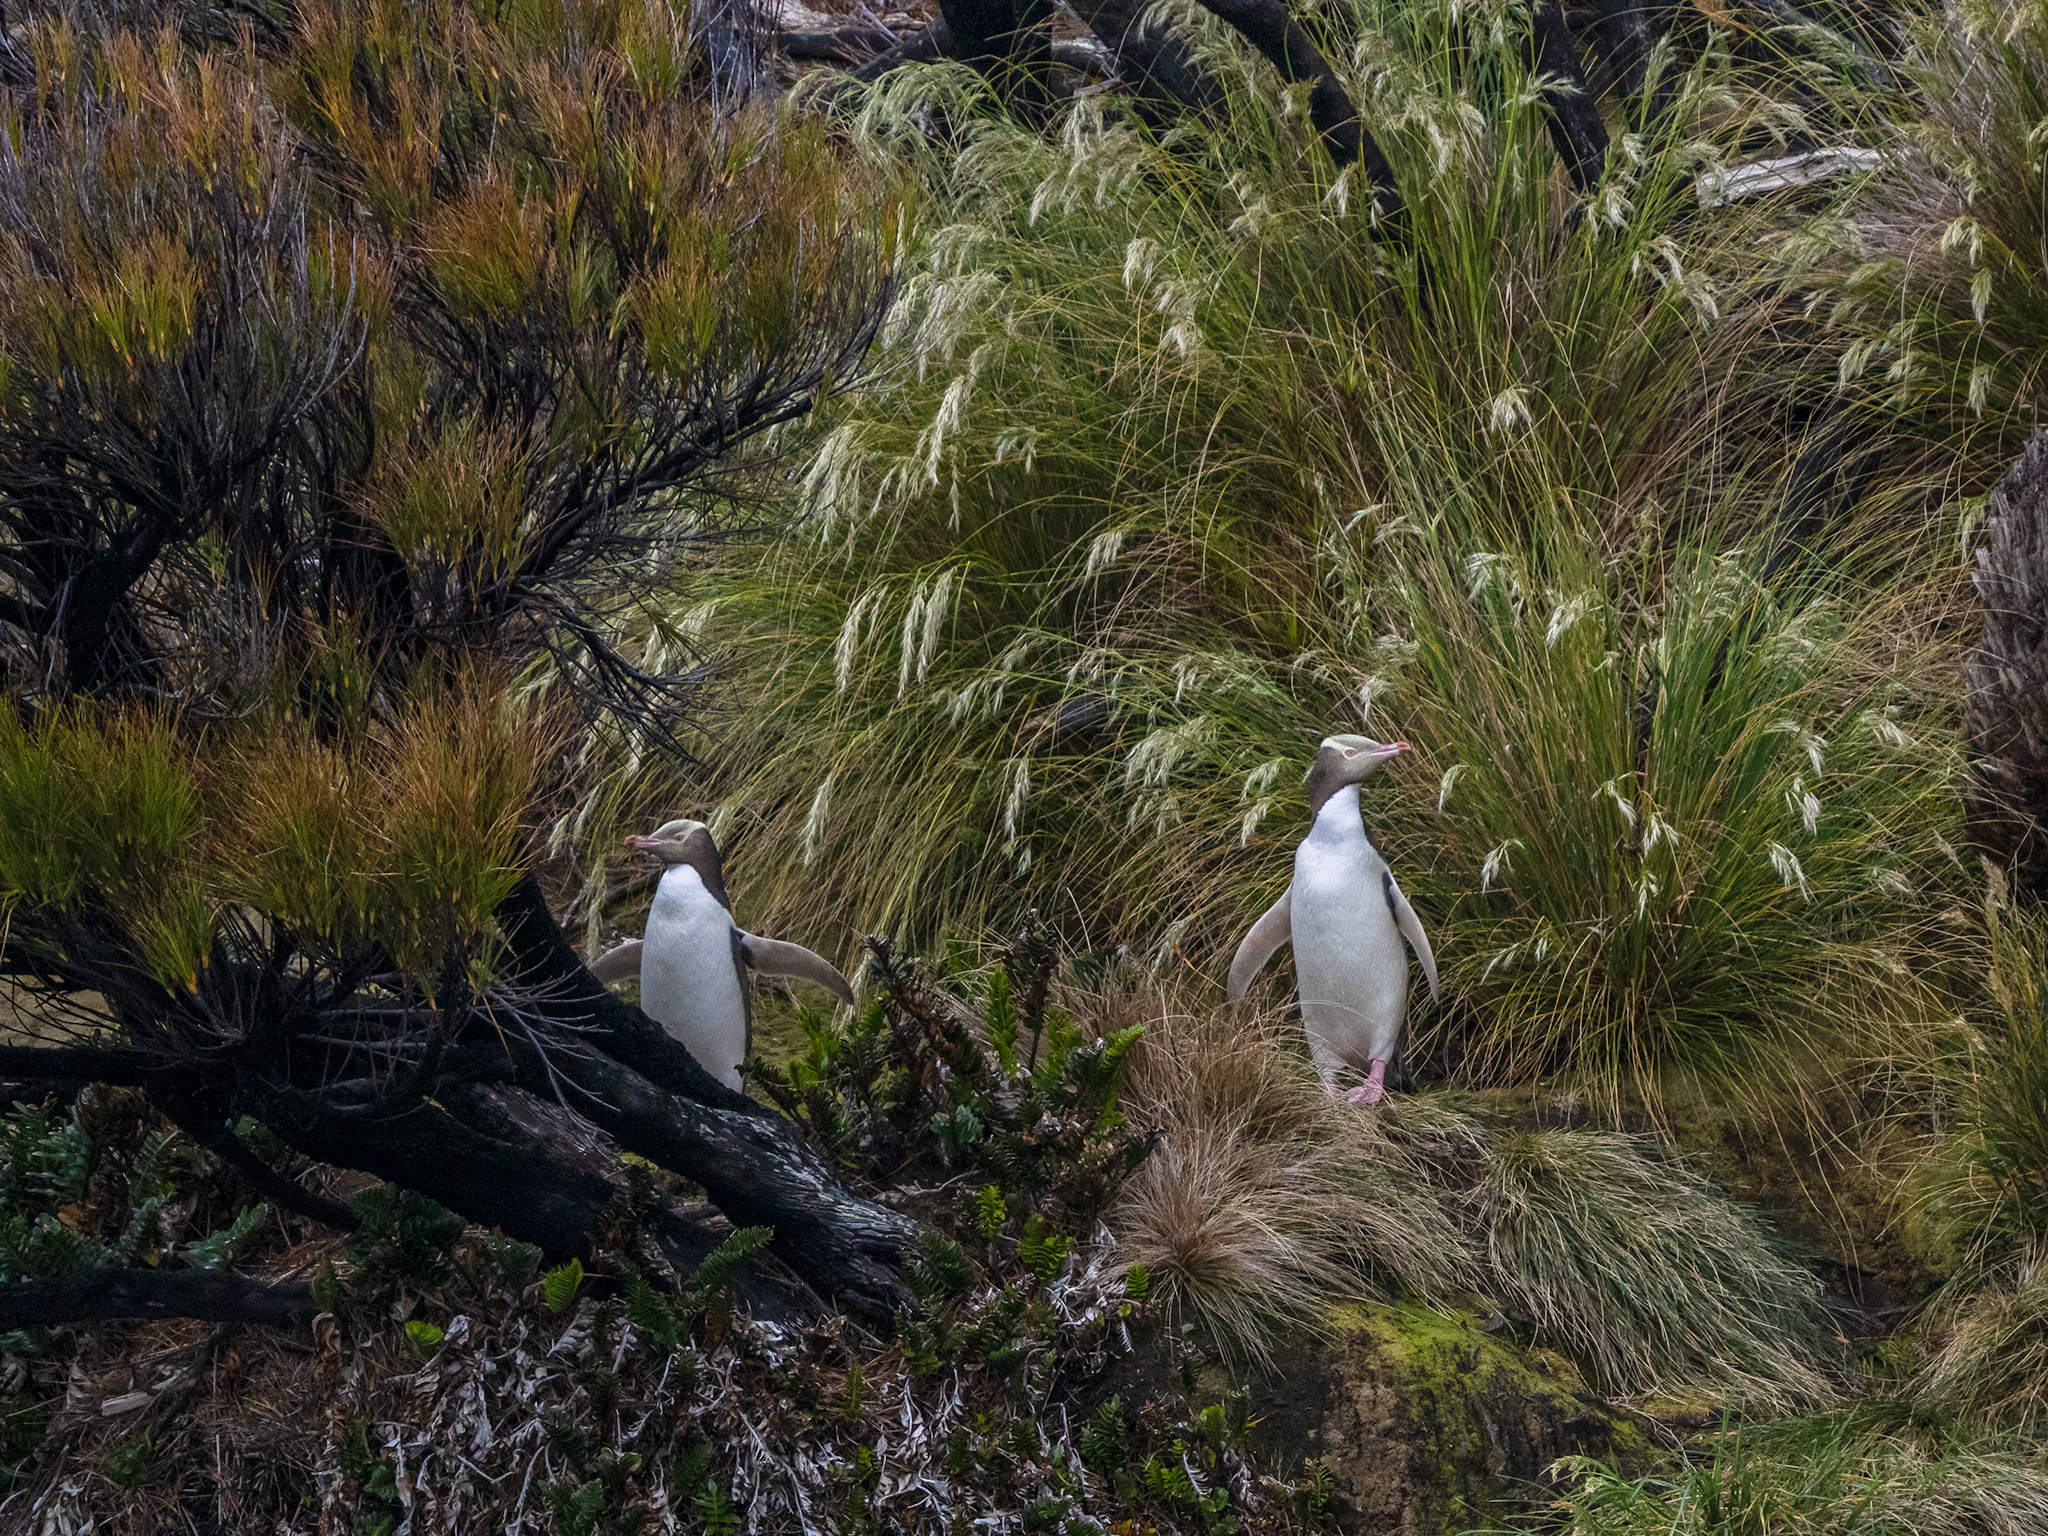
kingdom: Animalia
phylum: Chordata
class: Aves
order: Sphenisciformes
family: Spheniscidae
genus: Megadyptes
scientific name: Megadyptes antipodes
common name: Yellow-eyed penguin
